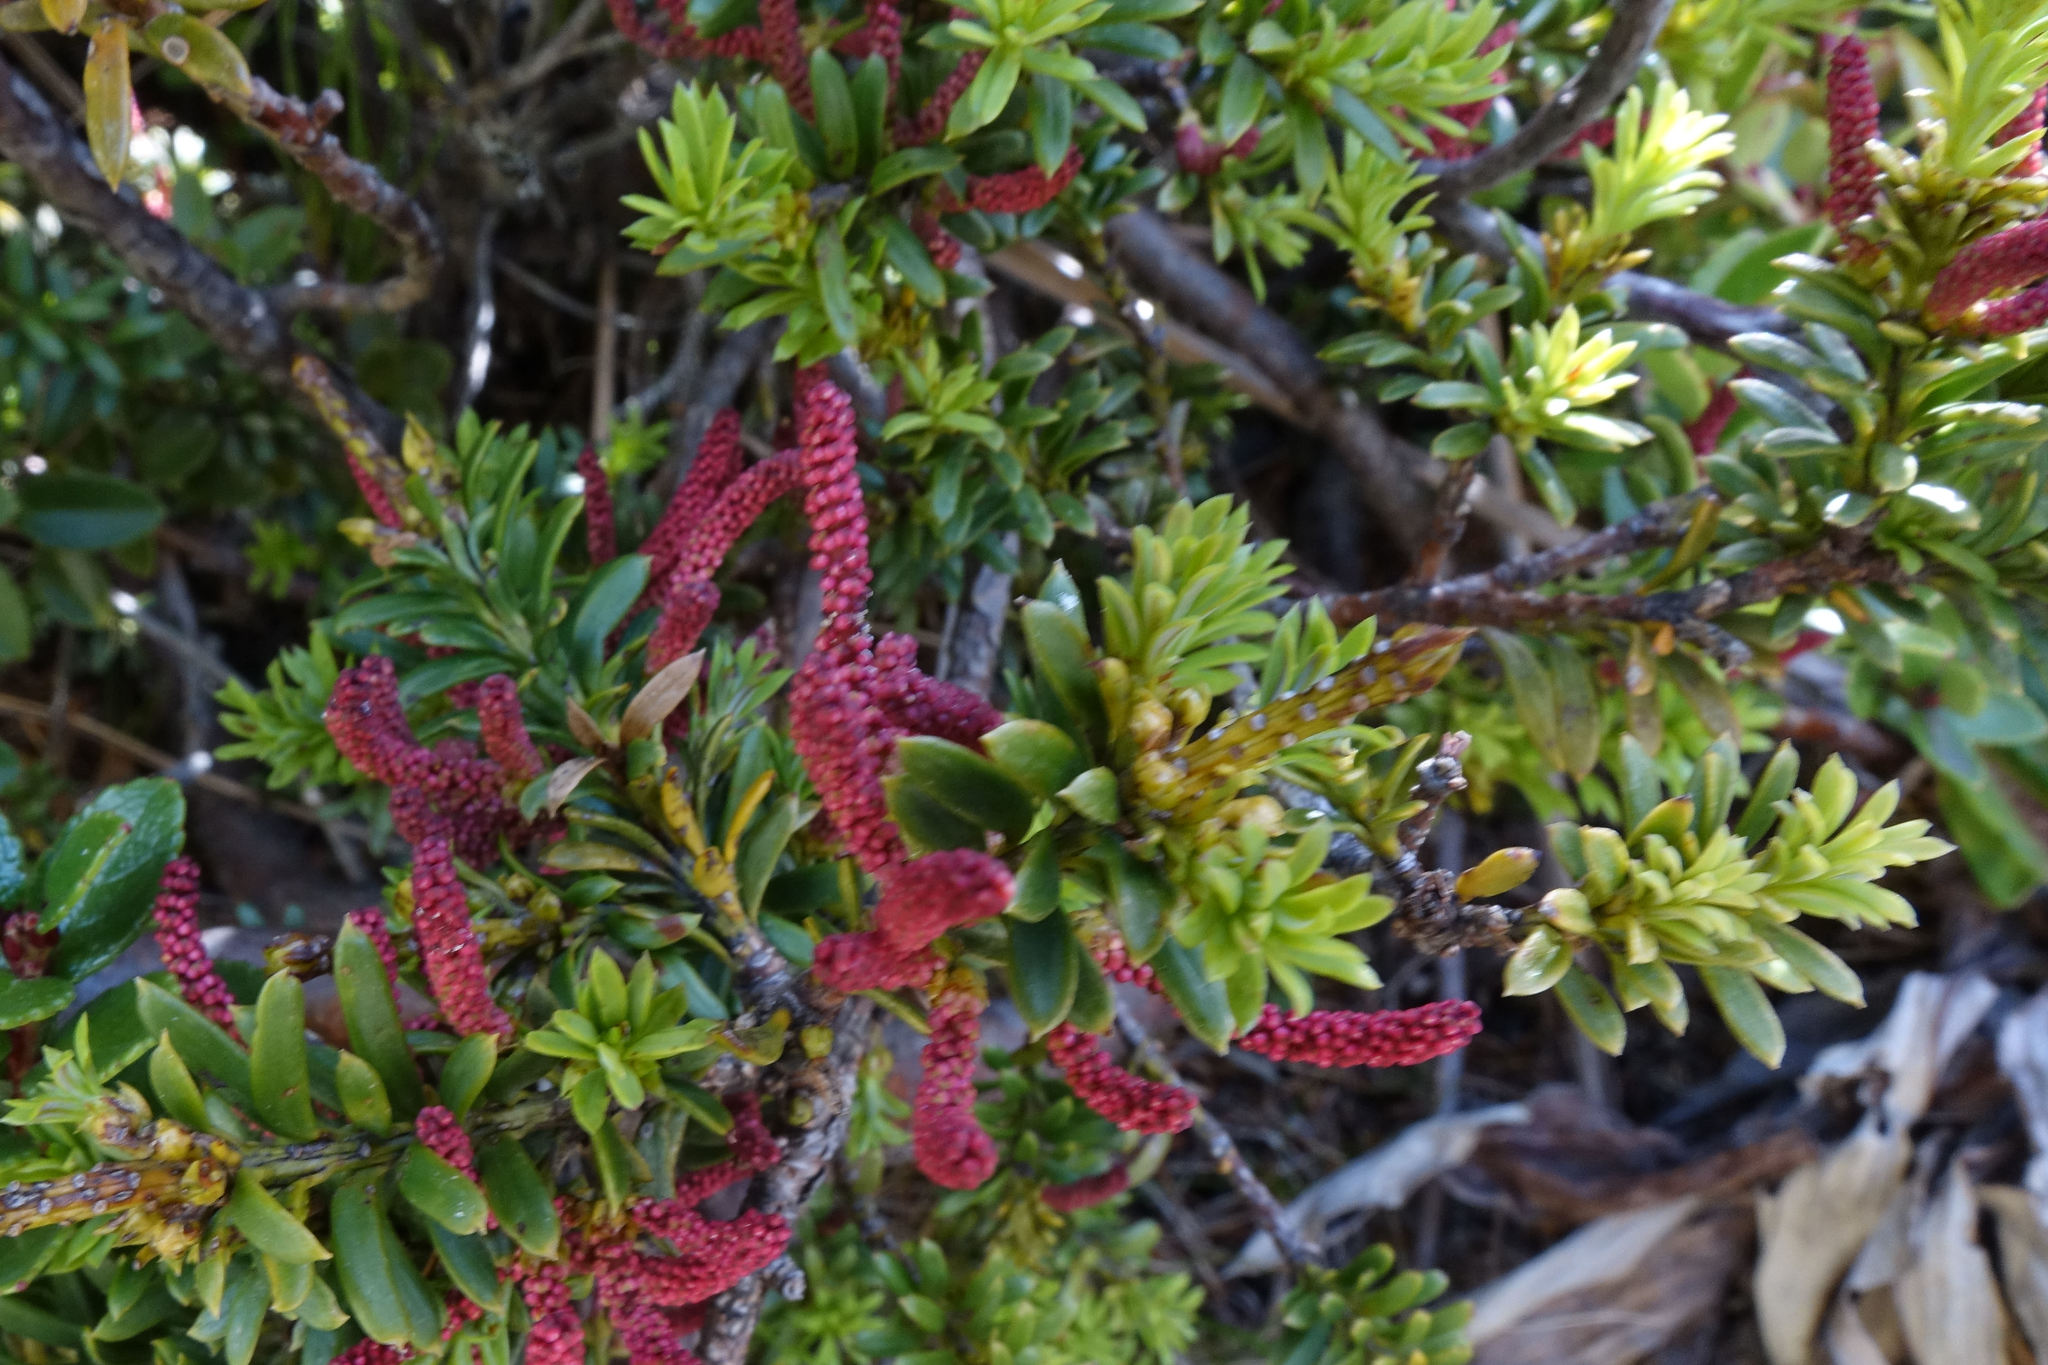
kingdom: Plantae
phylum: Tracheophyta
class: Pinopsida
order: Pinales
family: Podocarpaceae
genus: Podocarpus
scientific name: Podocarpus nivalis
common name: Alpine totara
